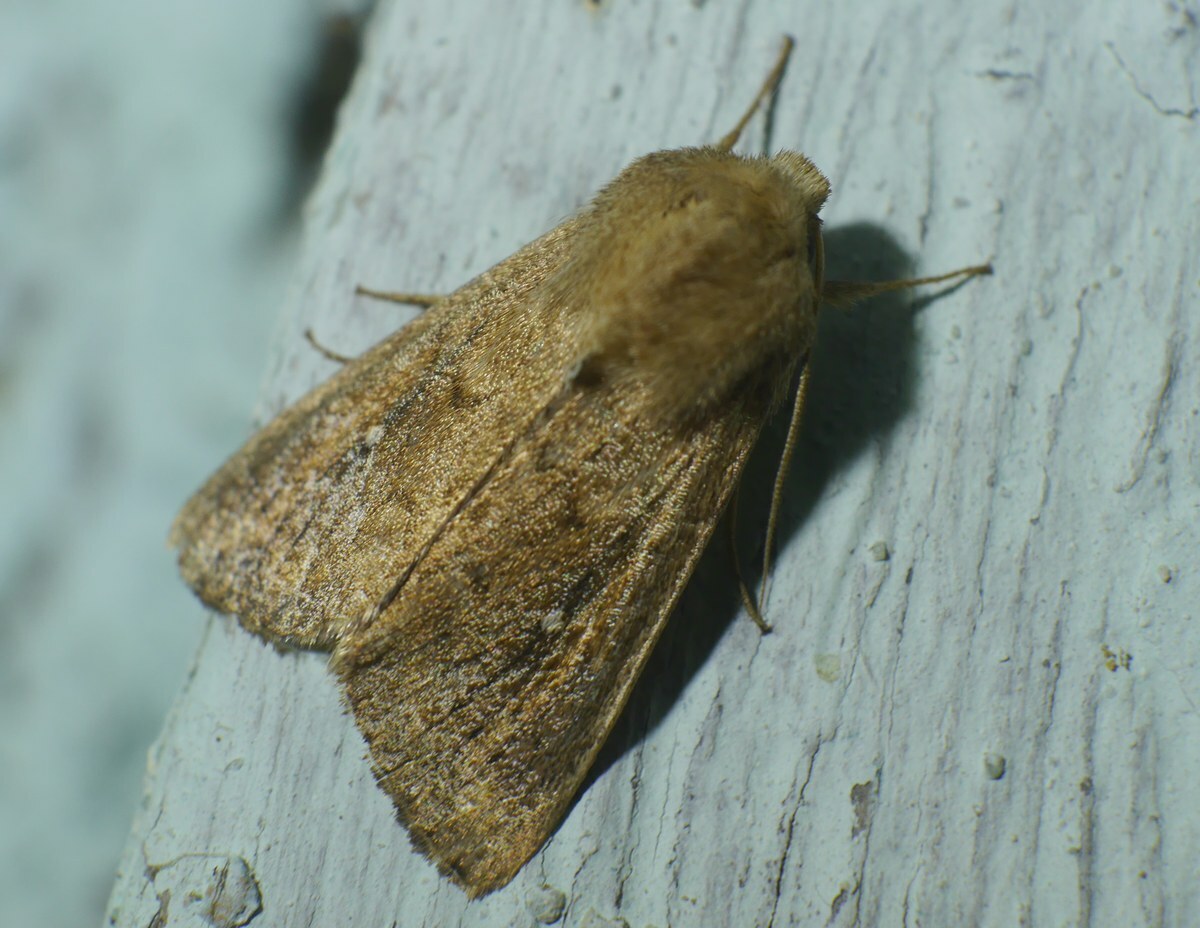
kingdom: Animalia
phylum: Arthropoda
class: Insecta
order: Lepidoptera
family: Noctuidae
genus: Mythimna
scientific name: Mythimna albipuncta
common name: White-point
